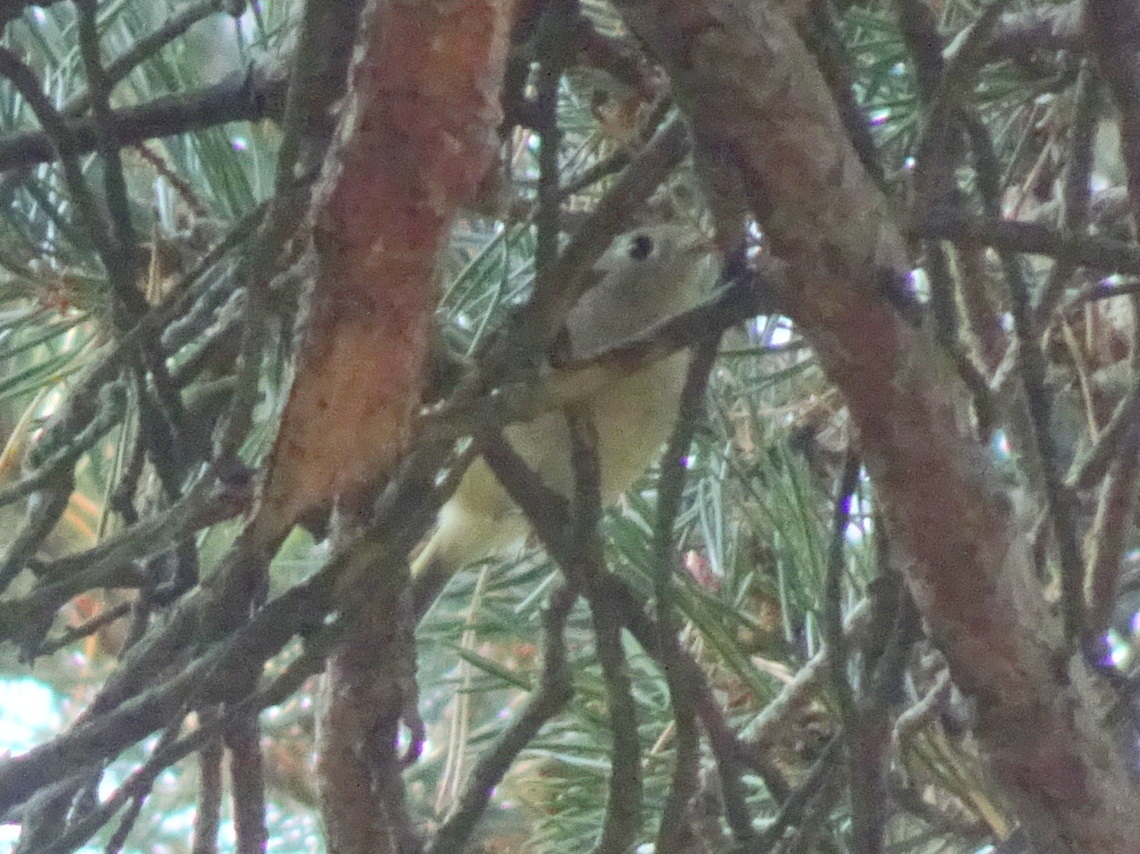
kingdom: Animalia
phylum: Chordata
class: Aves
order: Passeriformes
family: Regulidae
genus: Regulus
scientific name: Regulus calendula
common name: Ruby-crowned kinglet
